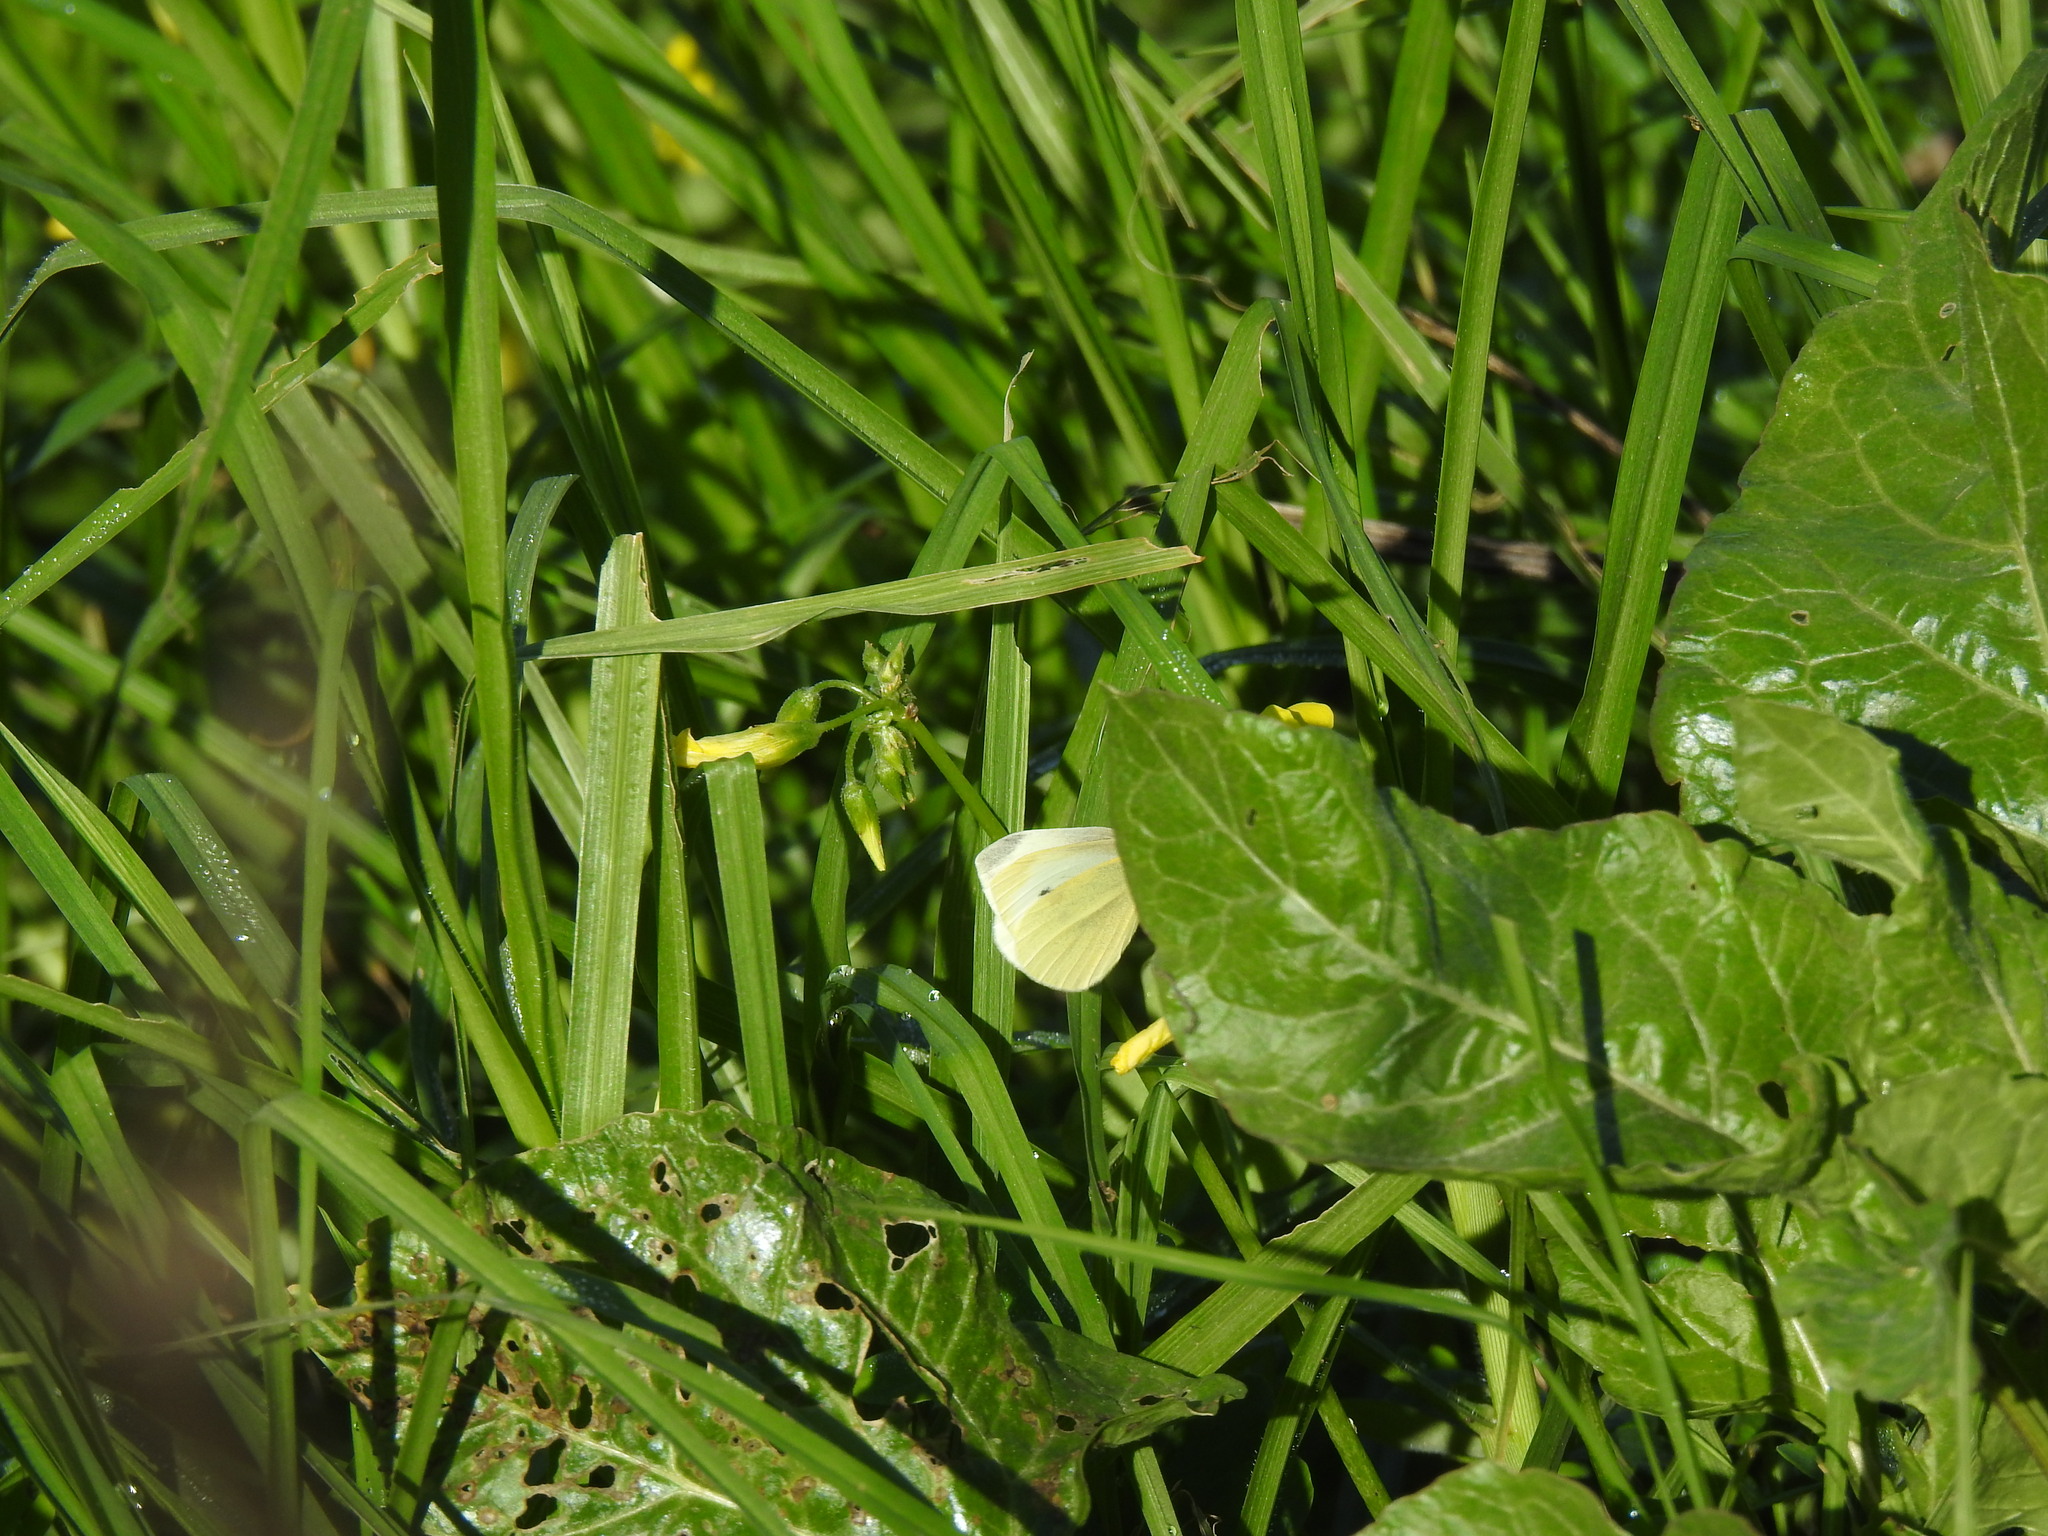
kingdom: Animalia
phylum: Arthropoda
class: Insecta
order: Lepidoptera
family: Pieridae
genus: Pieris
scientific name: Pieris rapae
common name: Small white
